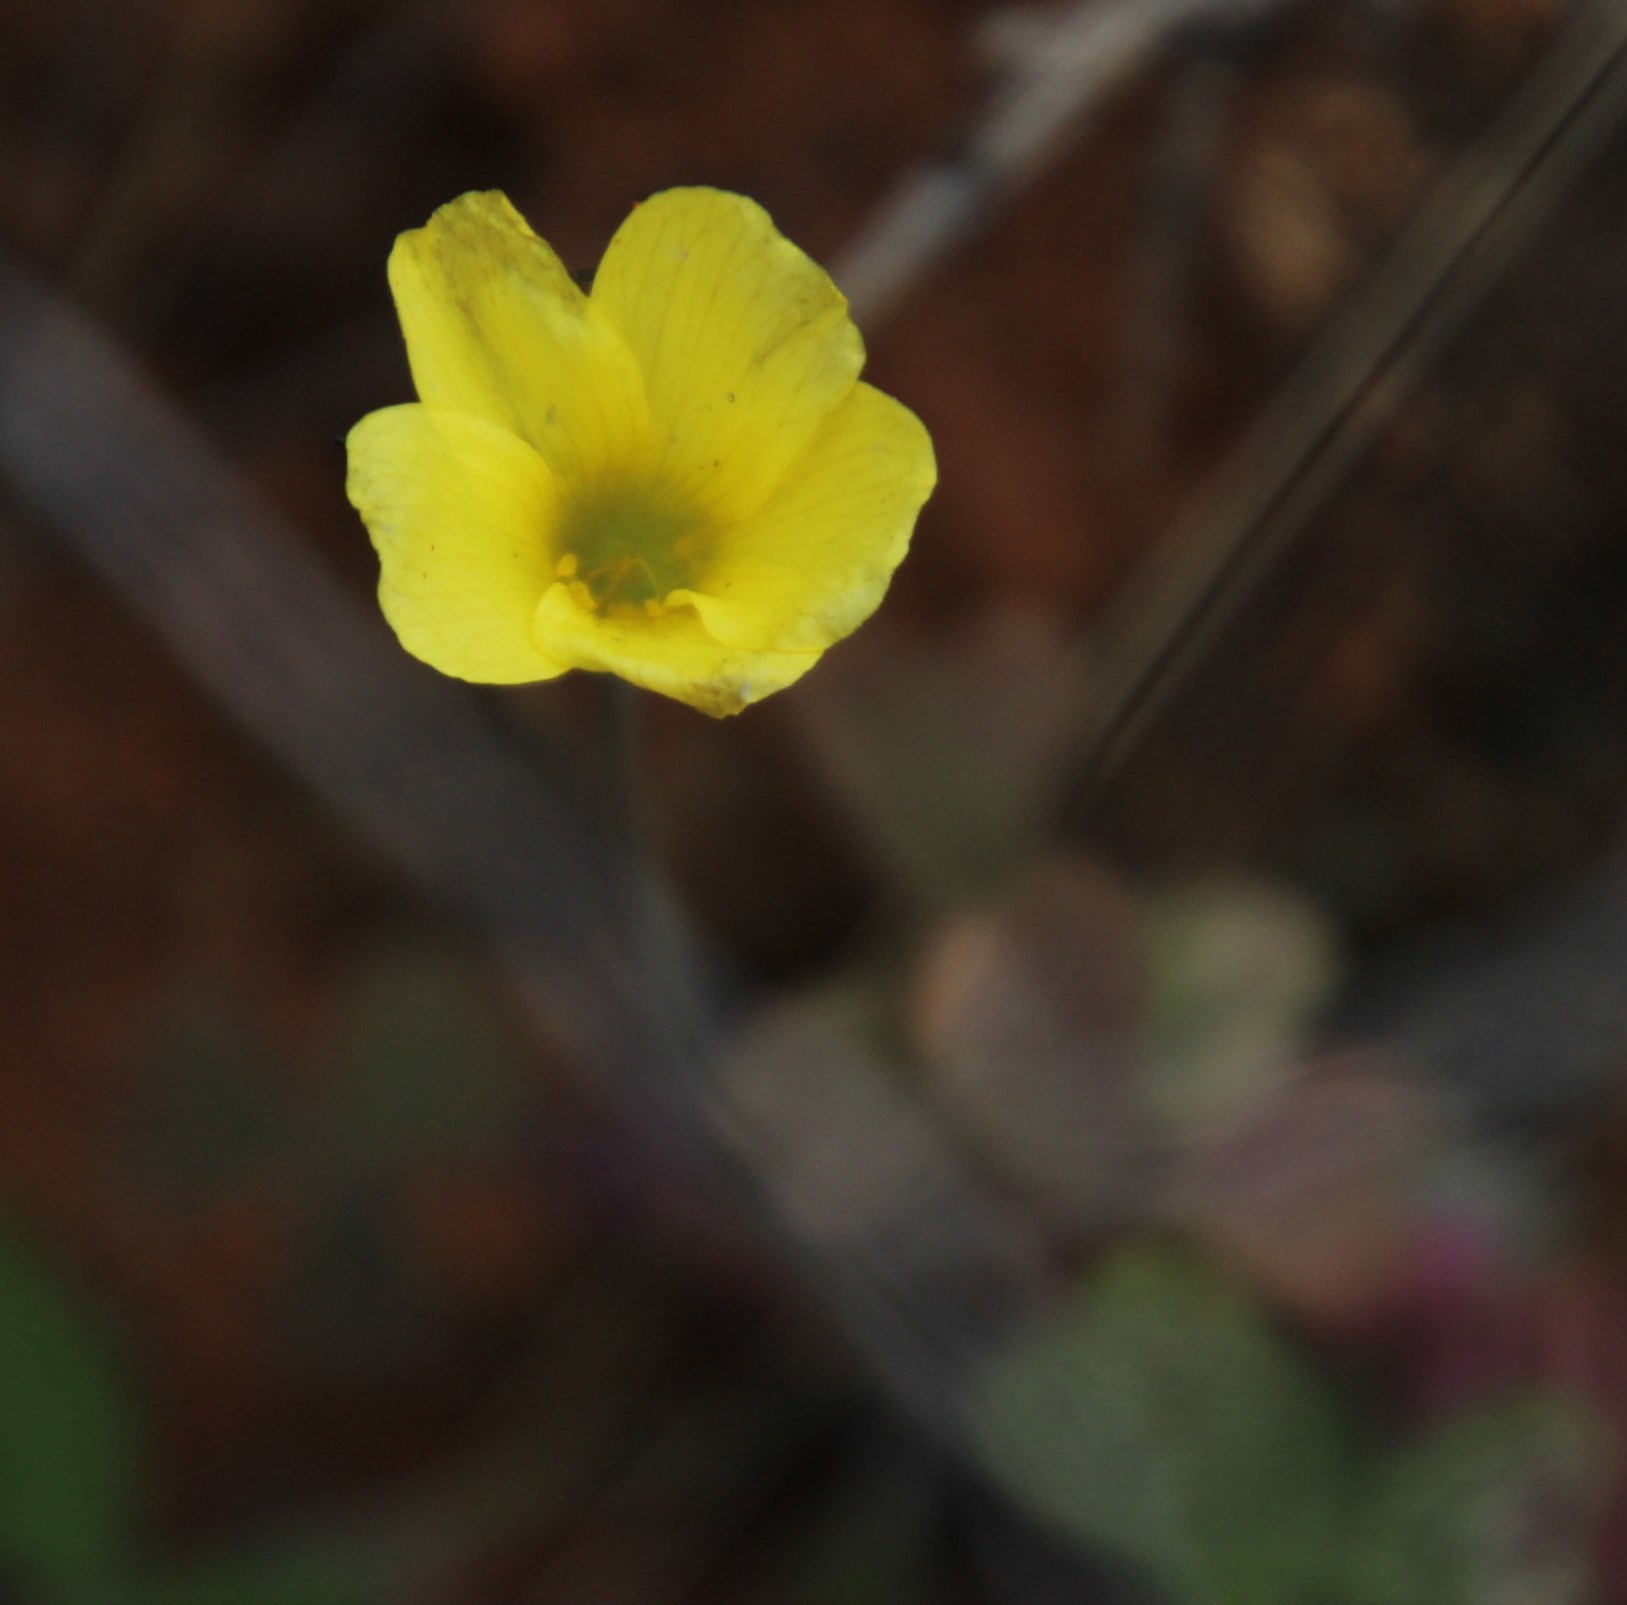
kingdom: Plantae
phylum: Tracheophyta
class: Magnoliopsida
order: Oxalidales
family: Oxalidaceae
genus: Oxalis
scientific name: Oxalis obtusa
